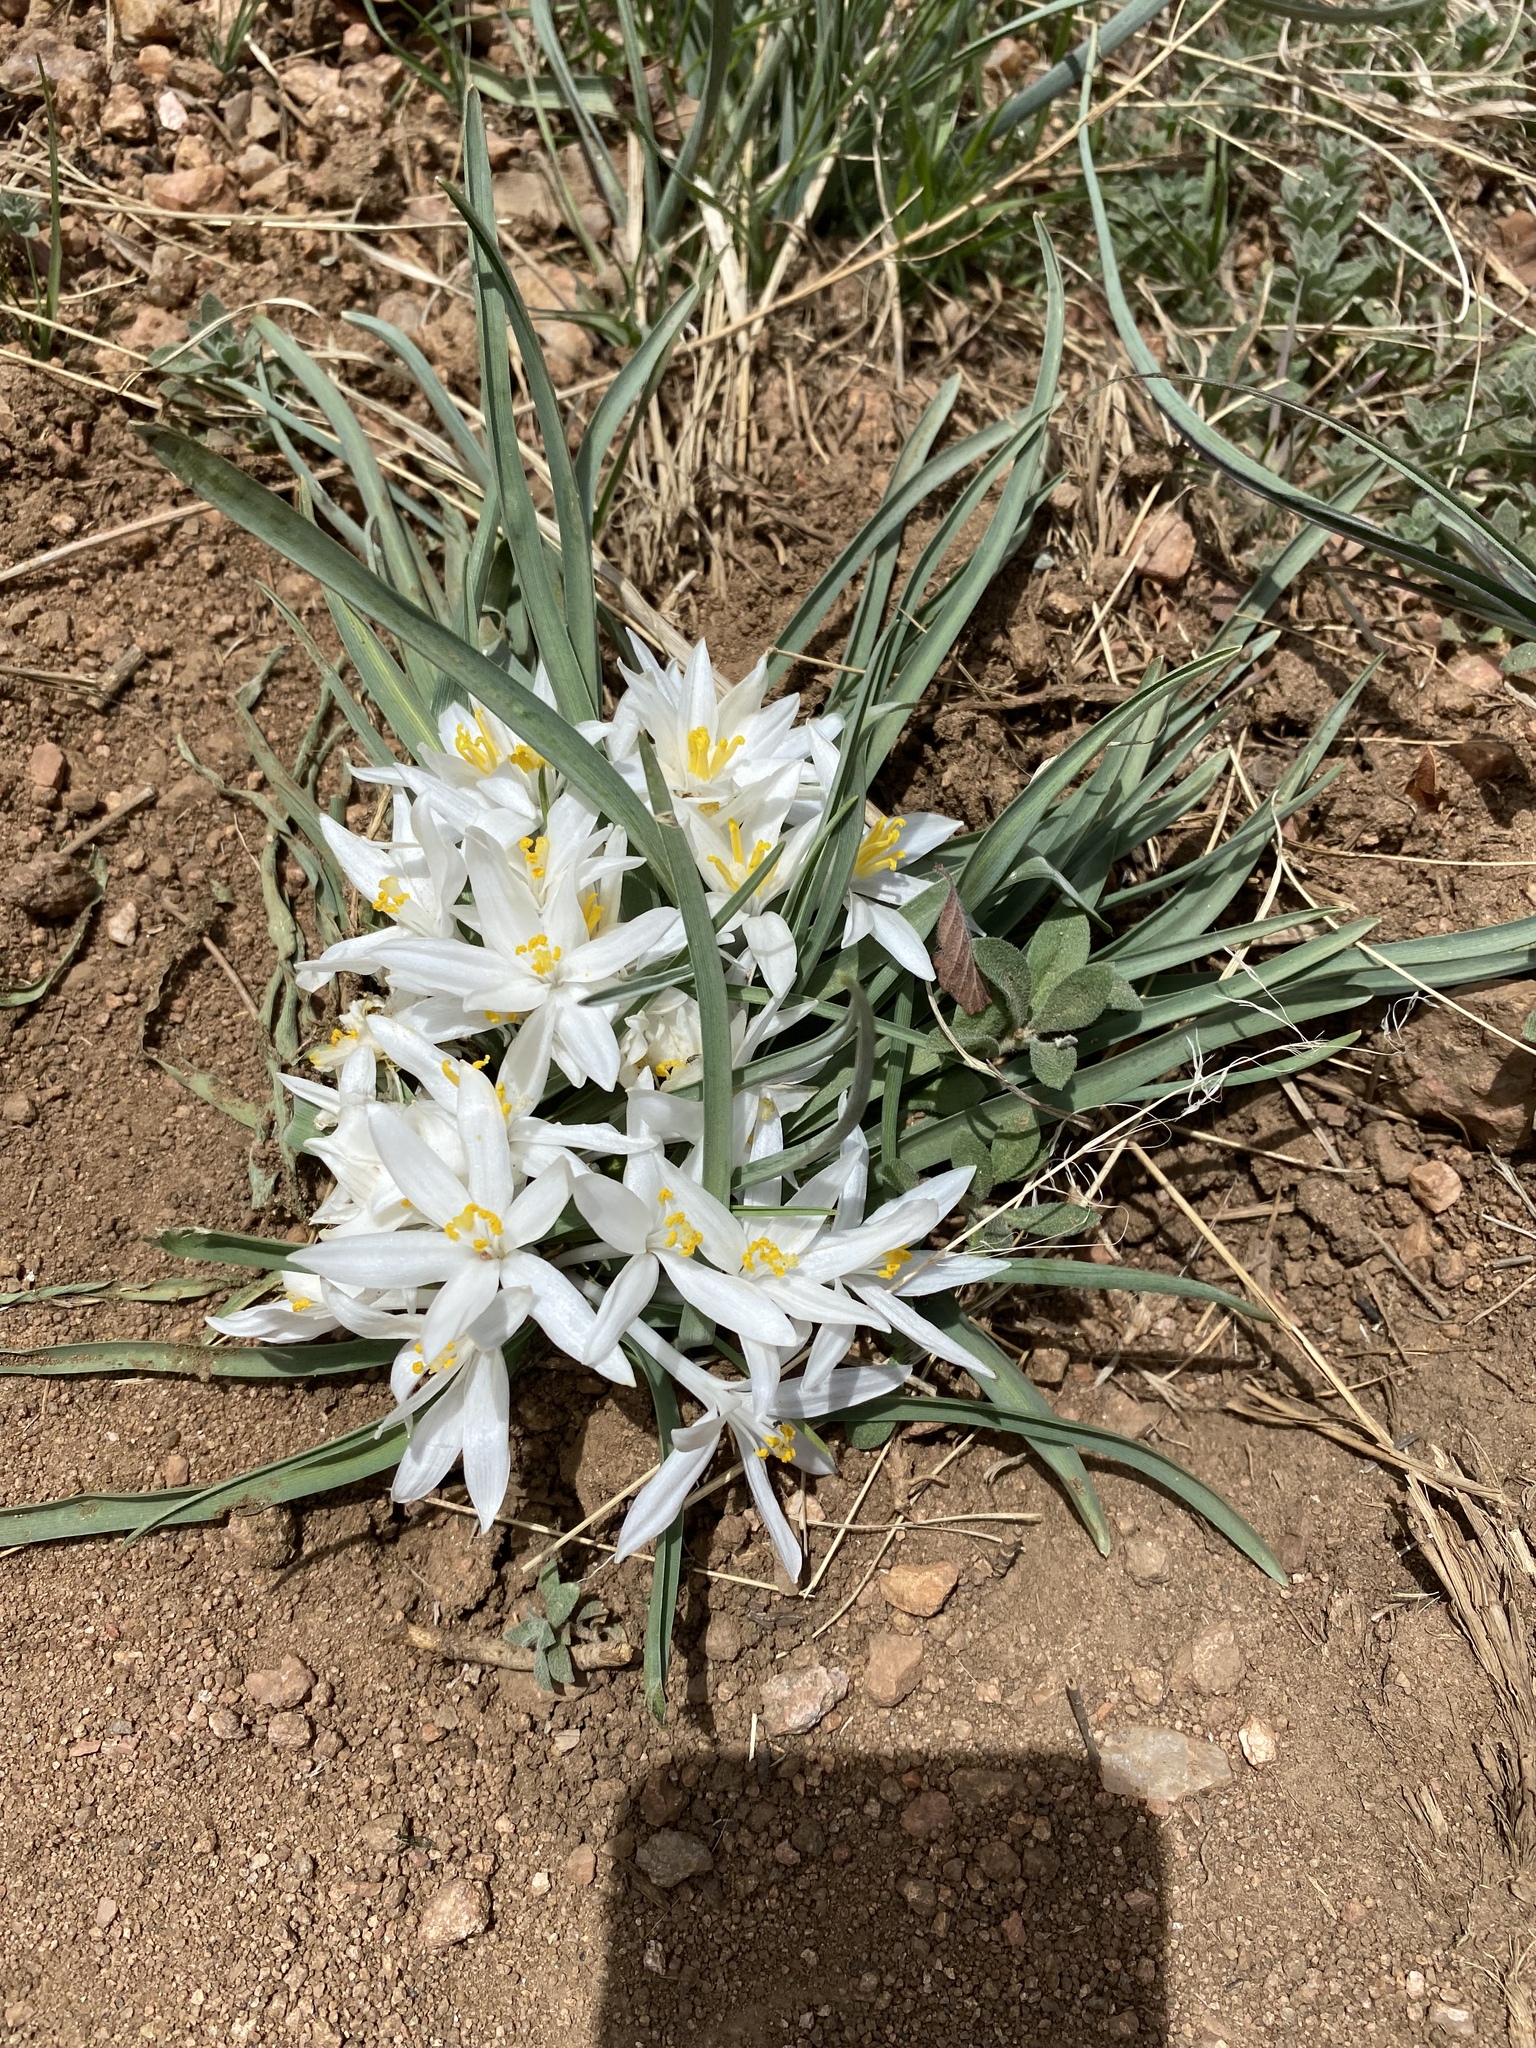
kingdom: Plantae
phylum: Tracheophyta
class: Liliopsida
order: Asparagales
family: Asparagaceae
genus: Leucocrinum
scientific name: Leucocrinum montanum
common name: Mountain-lily
